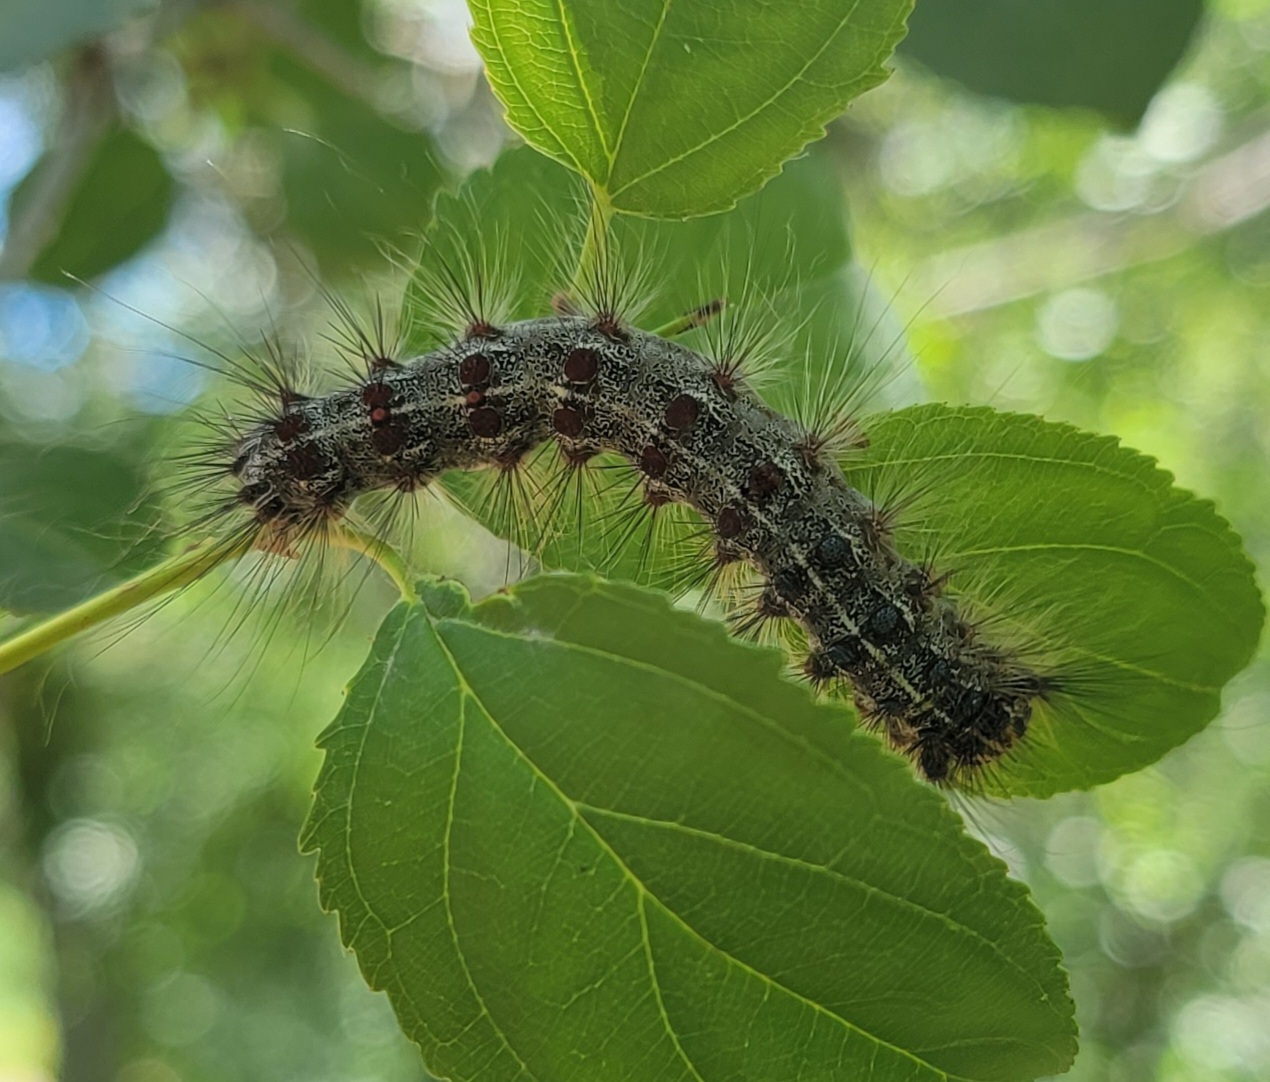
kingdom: Animalia
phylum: Arthropoda
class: Insecta
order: Lepidoptera
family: Erebidae
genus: Lymantria
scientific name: Lymantria dispar
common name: Gypsy moth
